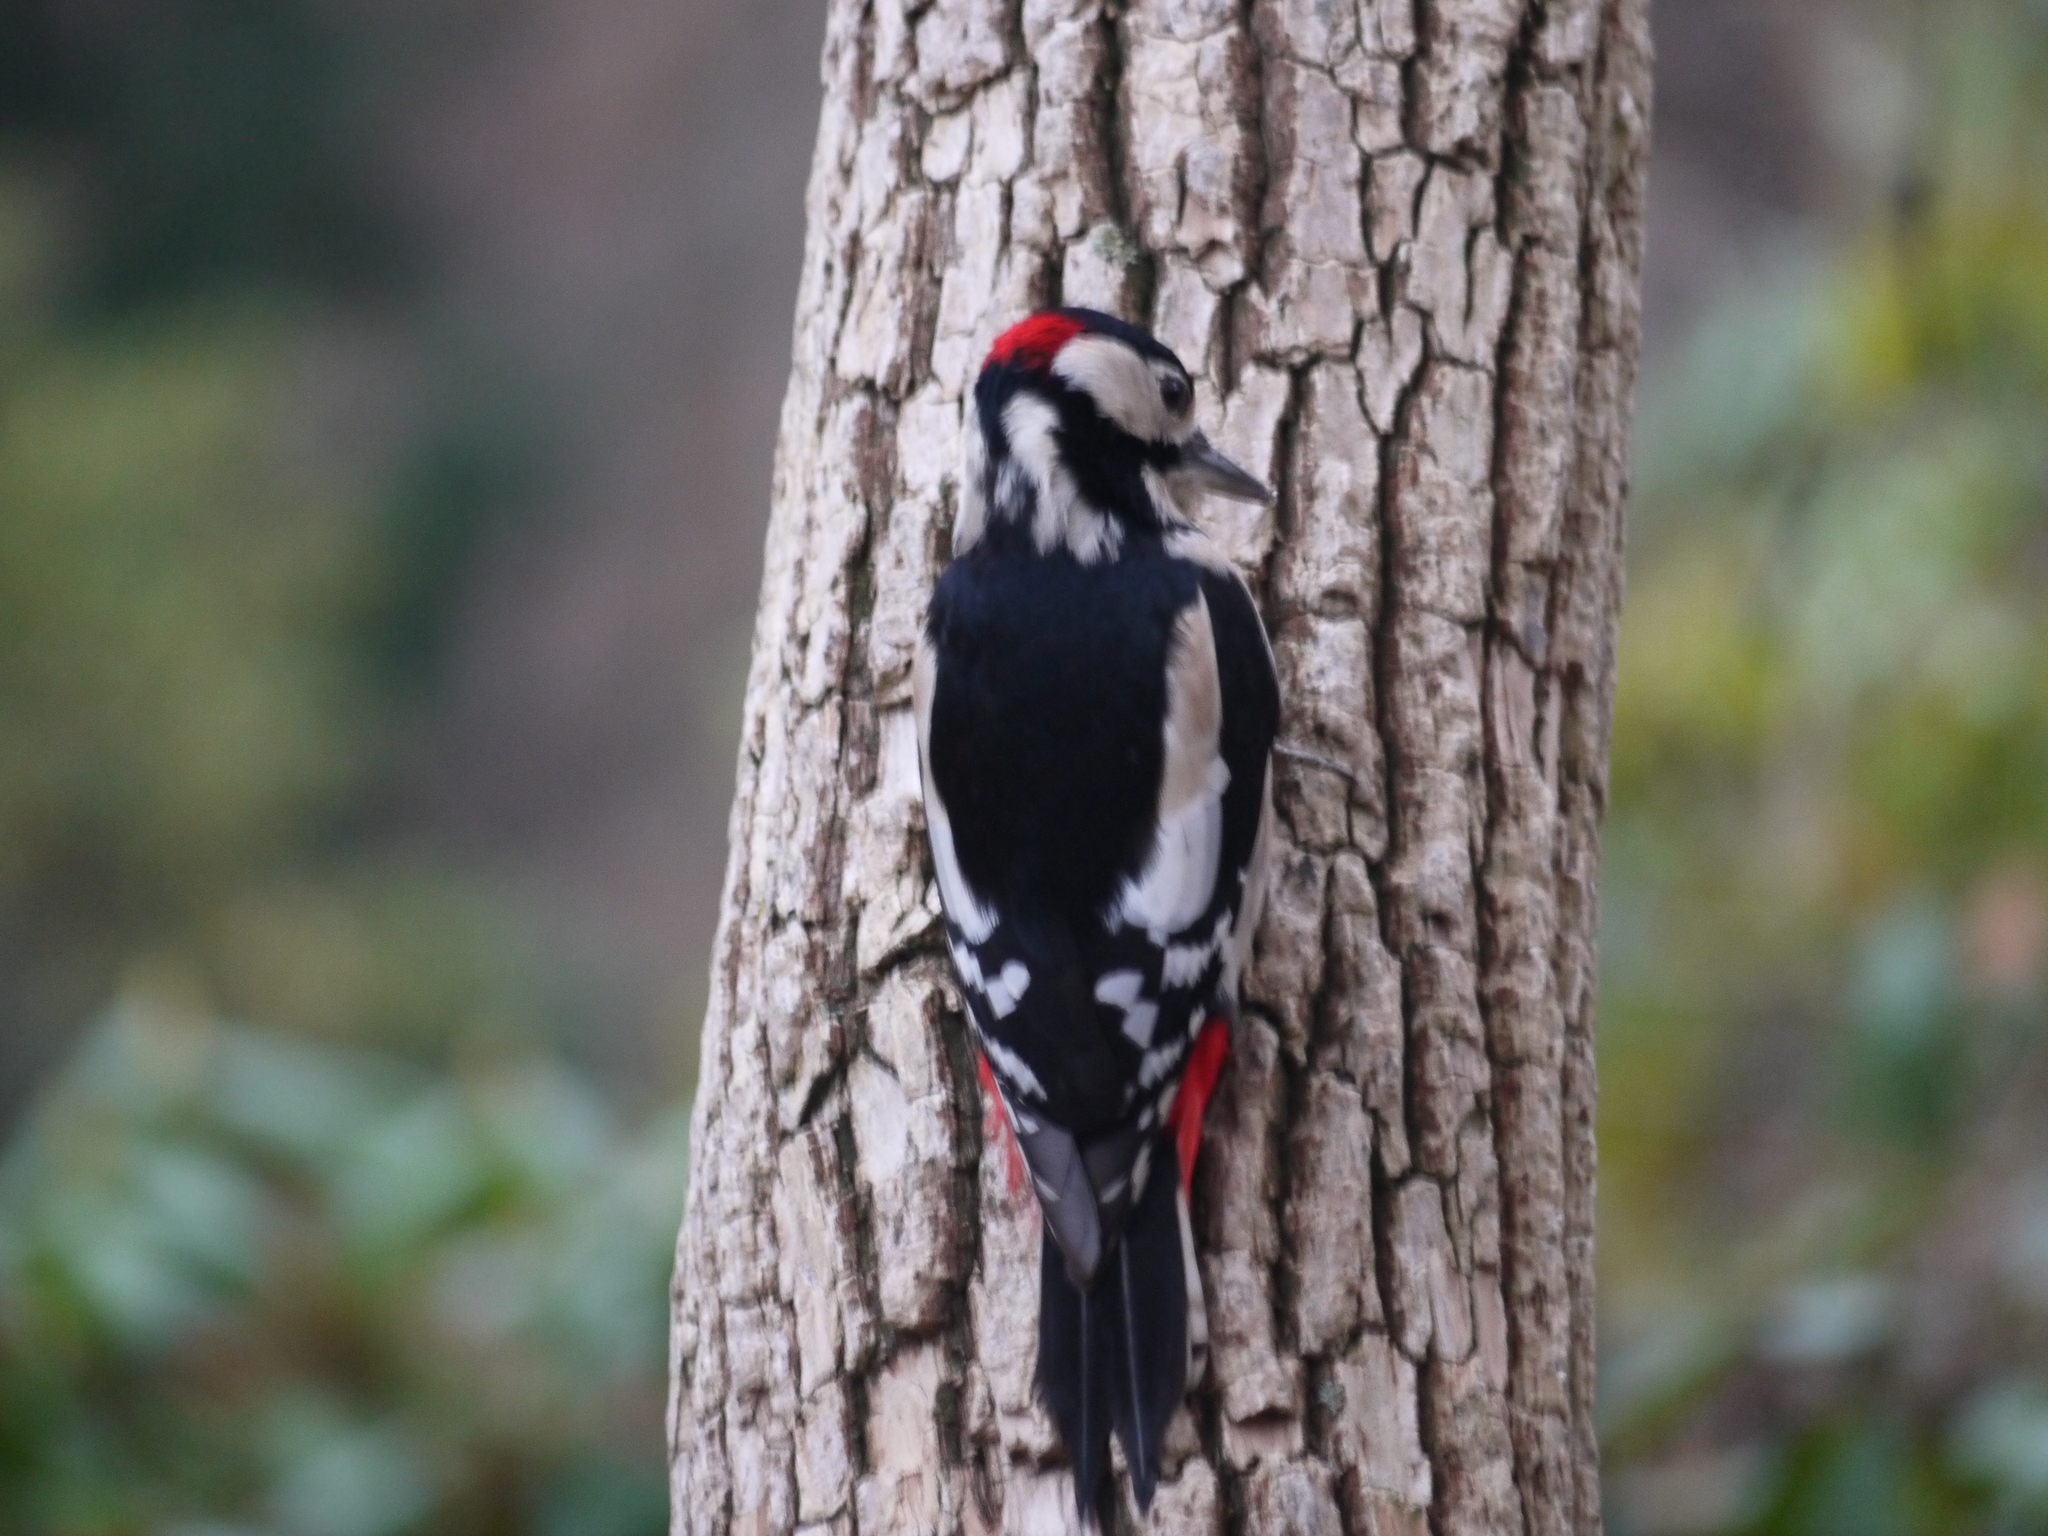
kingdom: Animalia
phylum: Chordata
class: Aves
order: Piciformes
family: Picidae
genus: Dendrocopos
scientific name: Dendrocopos major
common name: Great spotted woodpecker
